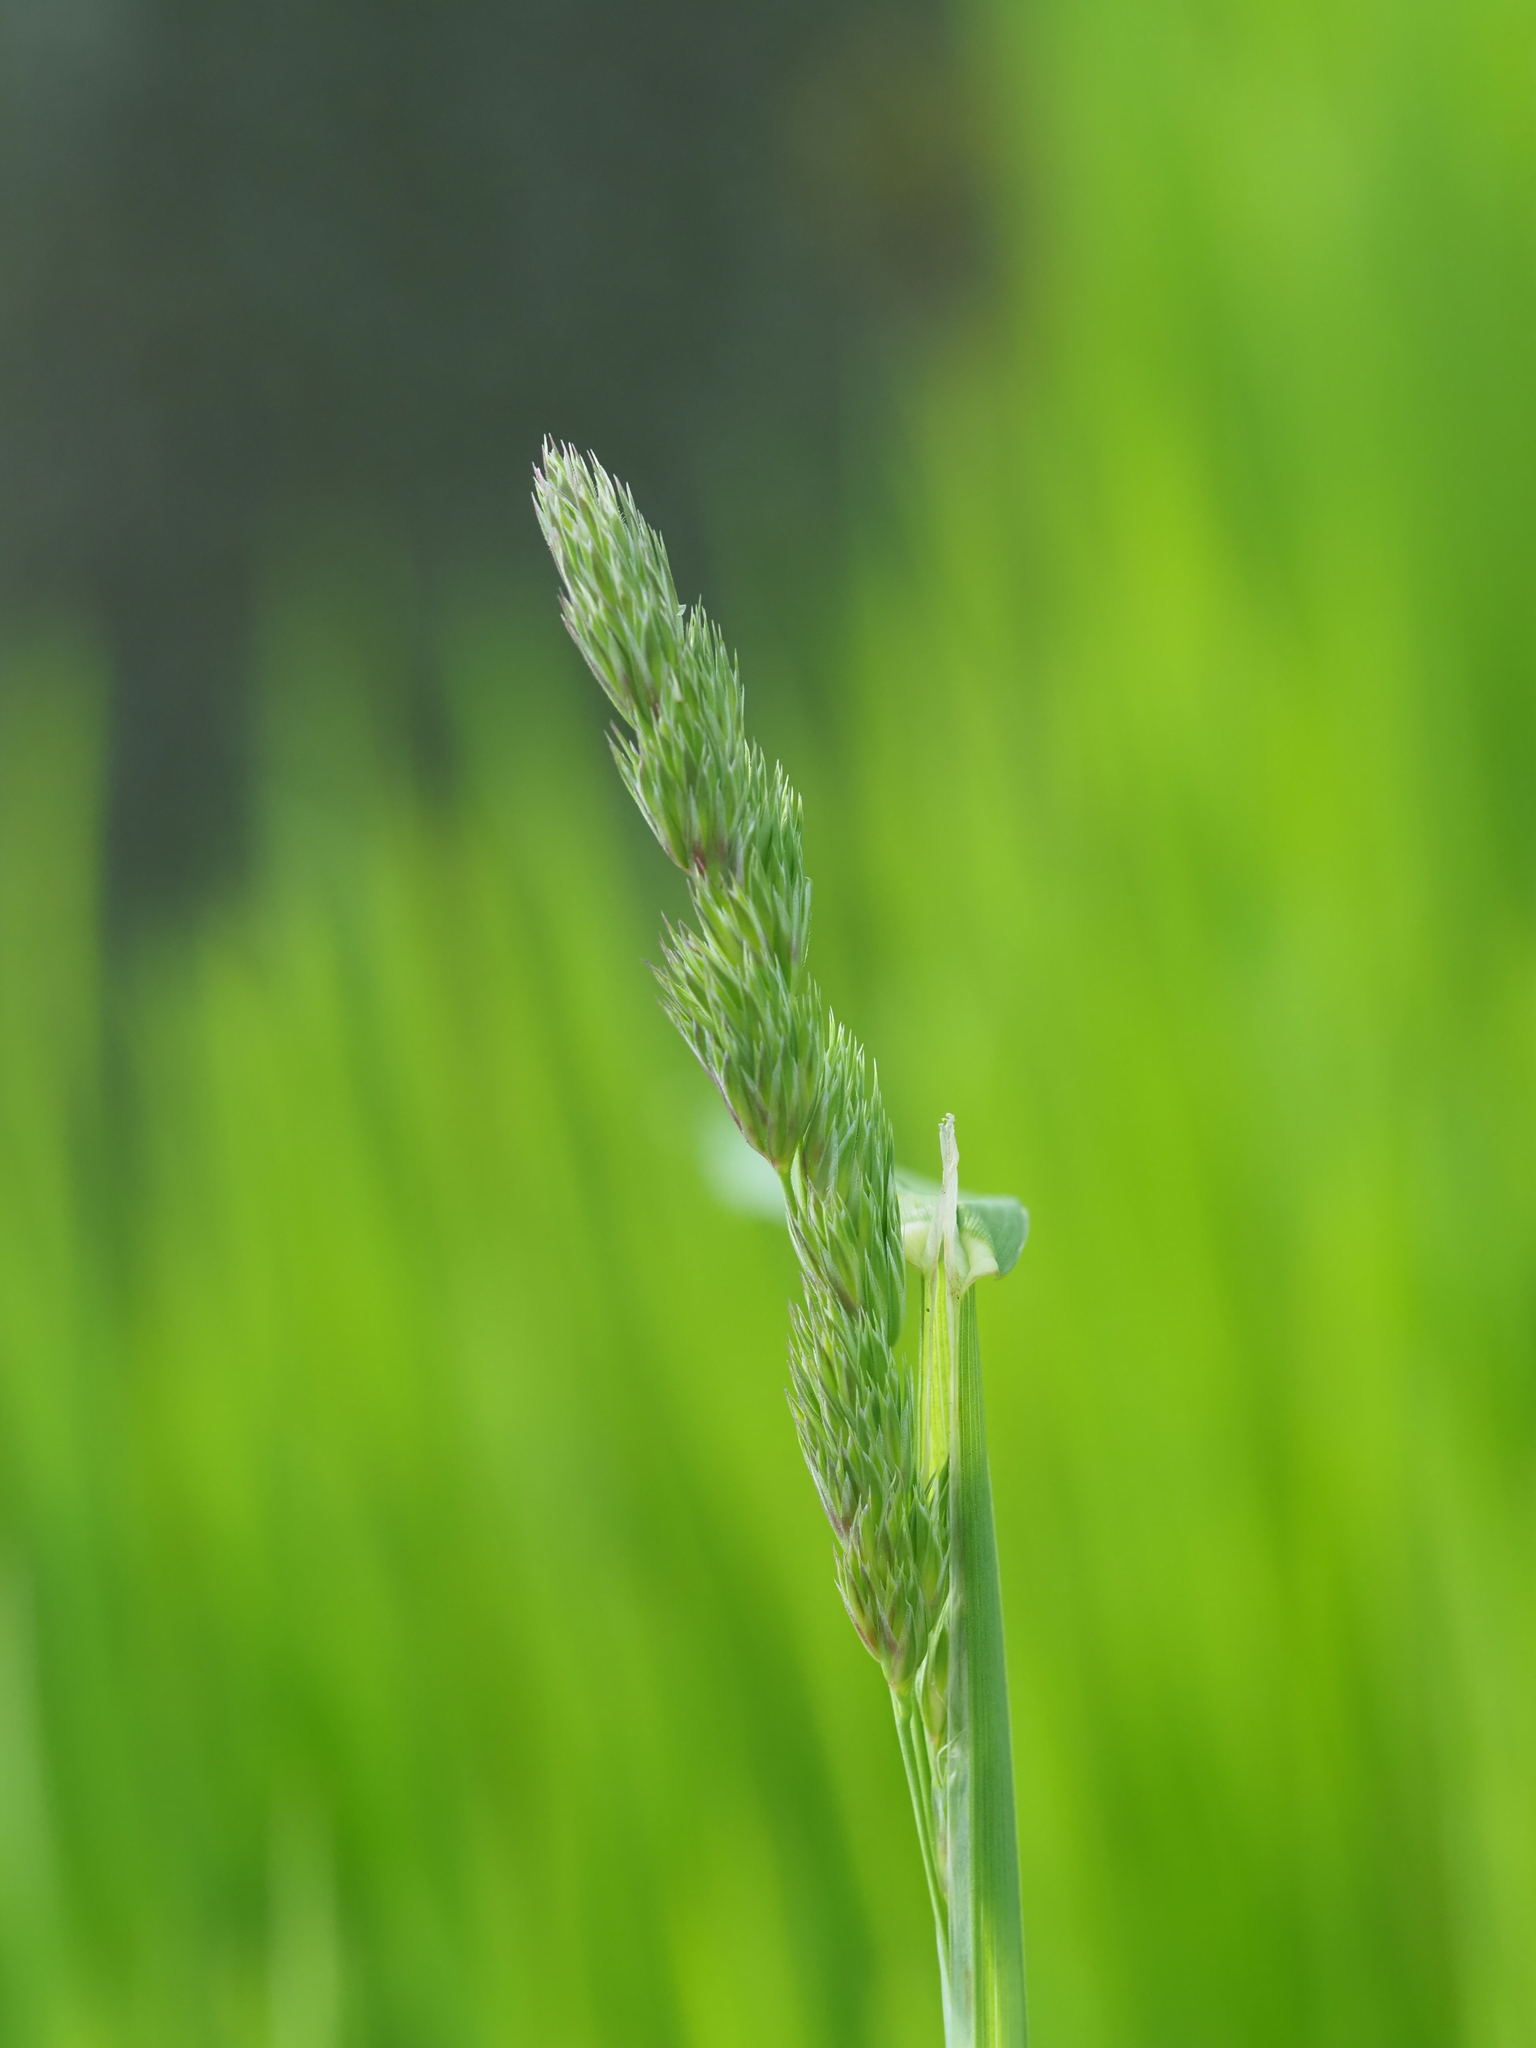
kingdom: Plantae
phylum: Tracheophyta
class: Liliopsida
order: Poales
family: Poaceae
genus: Dactylis
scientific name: Dactylis glomerata
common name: Orchardgrass
